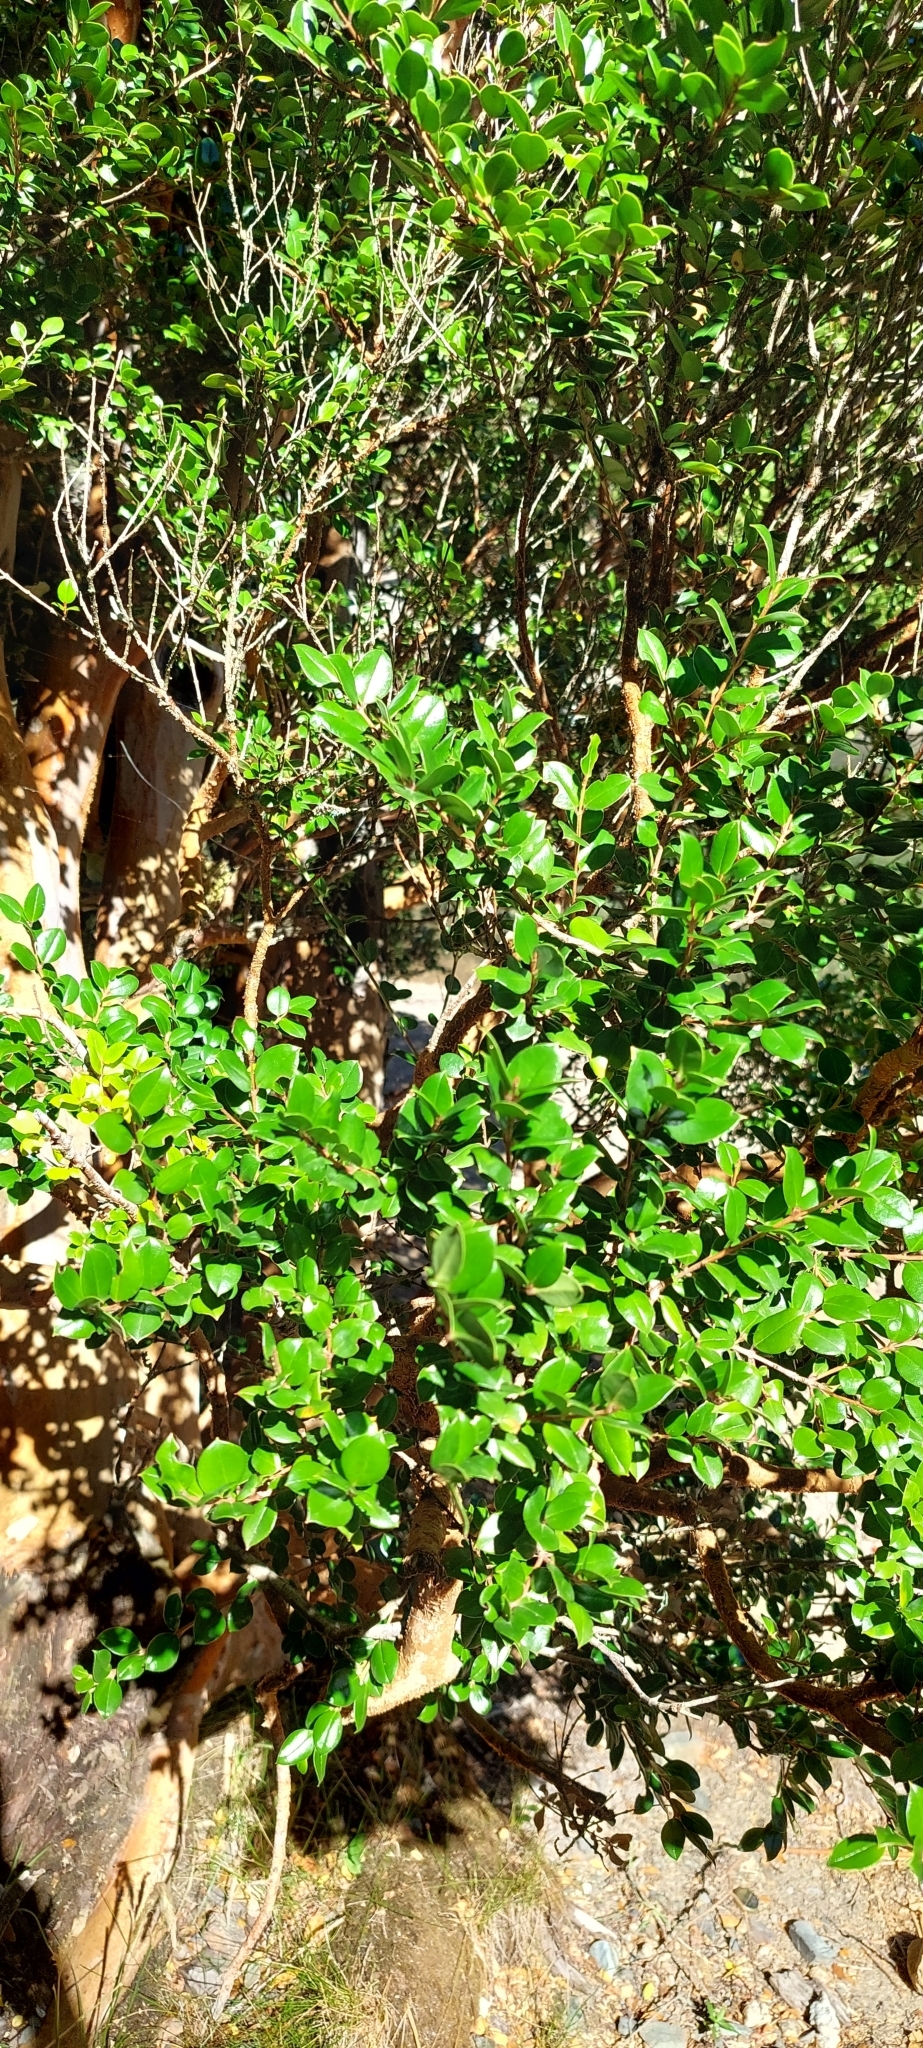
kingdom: Plantae
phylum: Tracheophyta
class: Magnoliopsida
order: Myrtales
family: Myrtaceae
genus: Luma
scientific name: Luma apiculata
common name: Chilean myrtle
